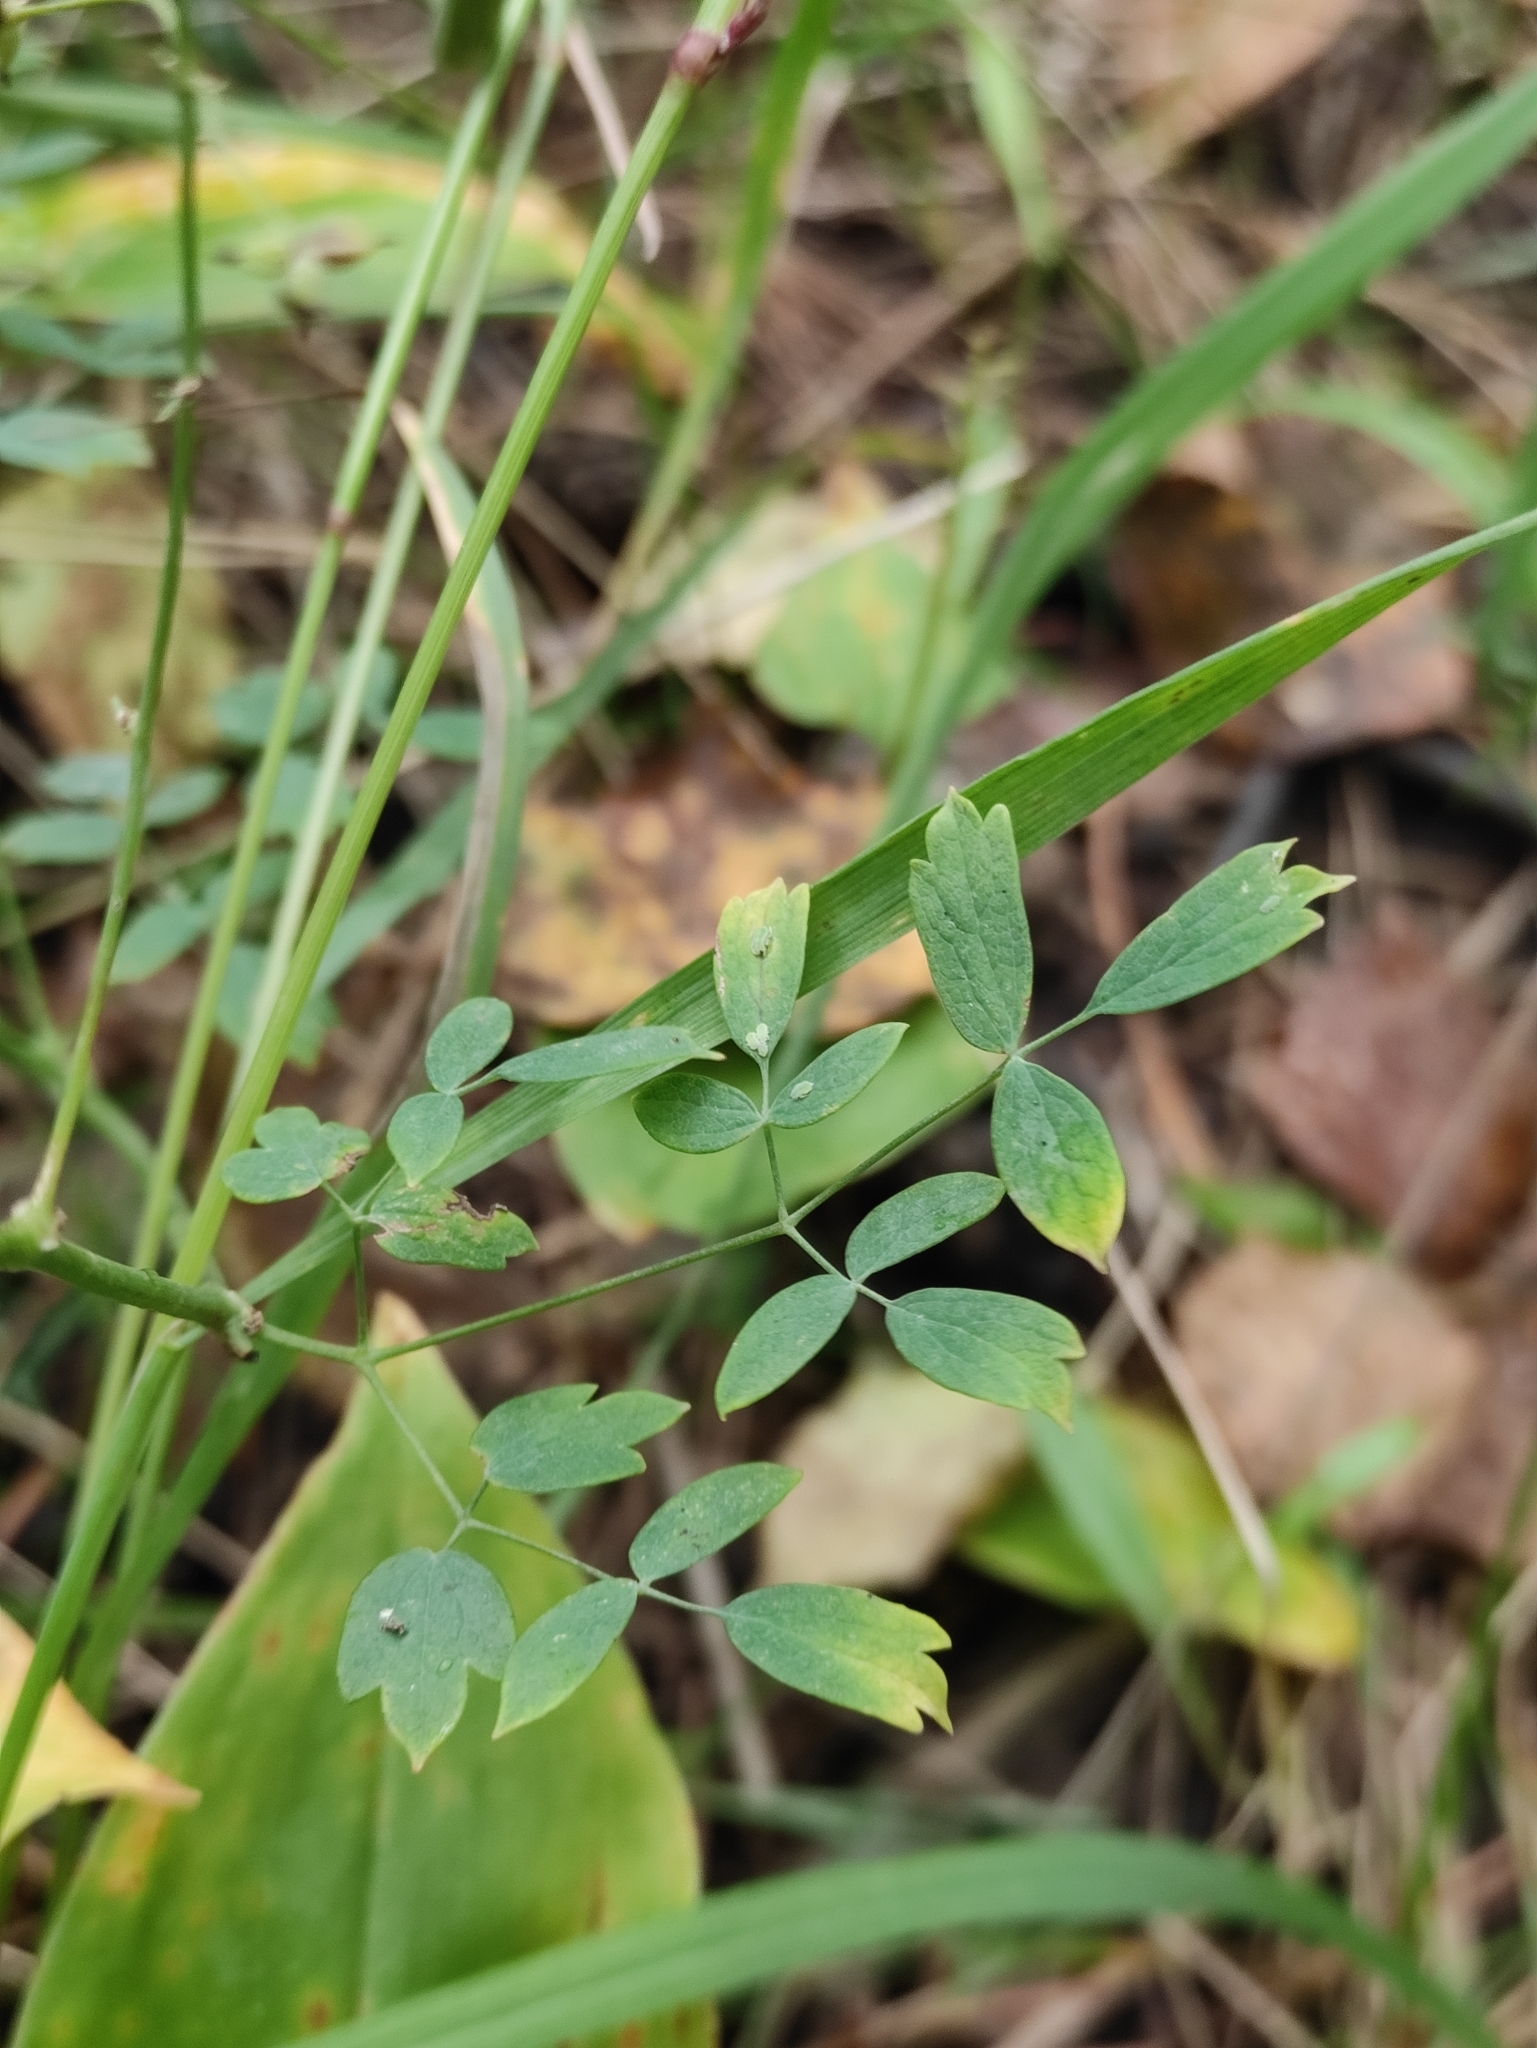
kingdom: Plantae
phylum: Tracheophyta
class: Magnoliopsida
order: Ranunculales
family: Ranunculaceae
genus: Thalictrum
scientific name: Thalictrum simplex
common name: Small meadow-rue
